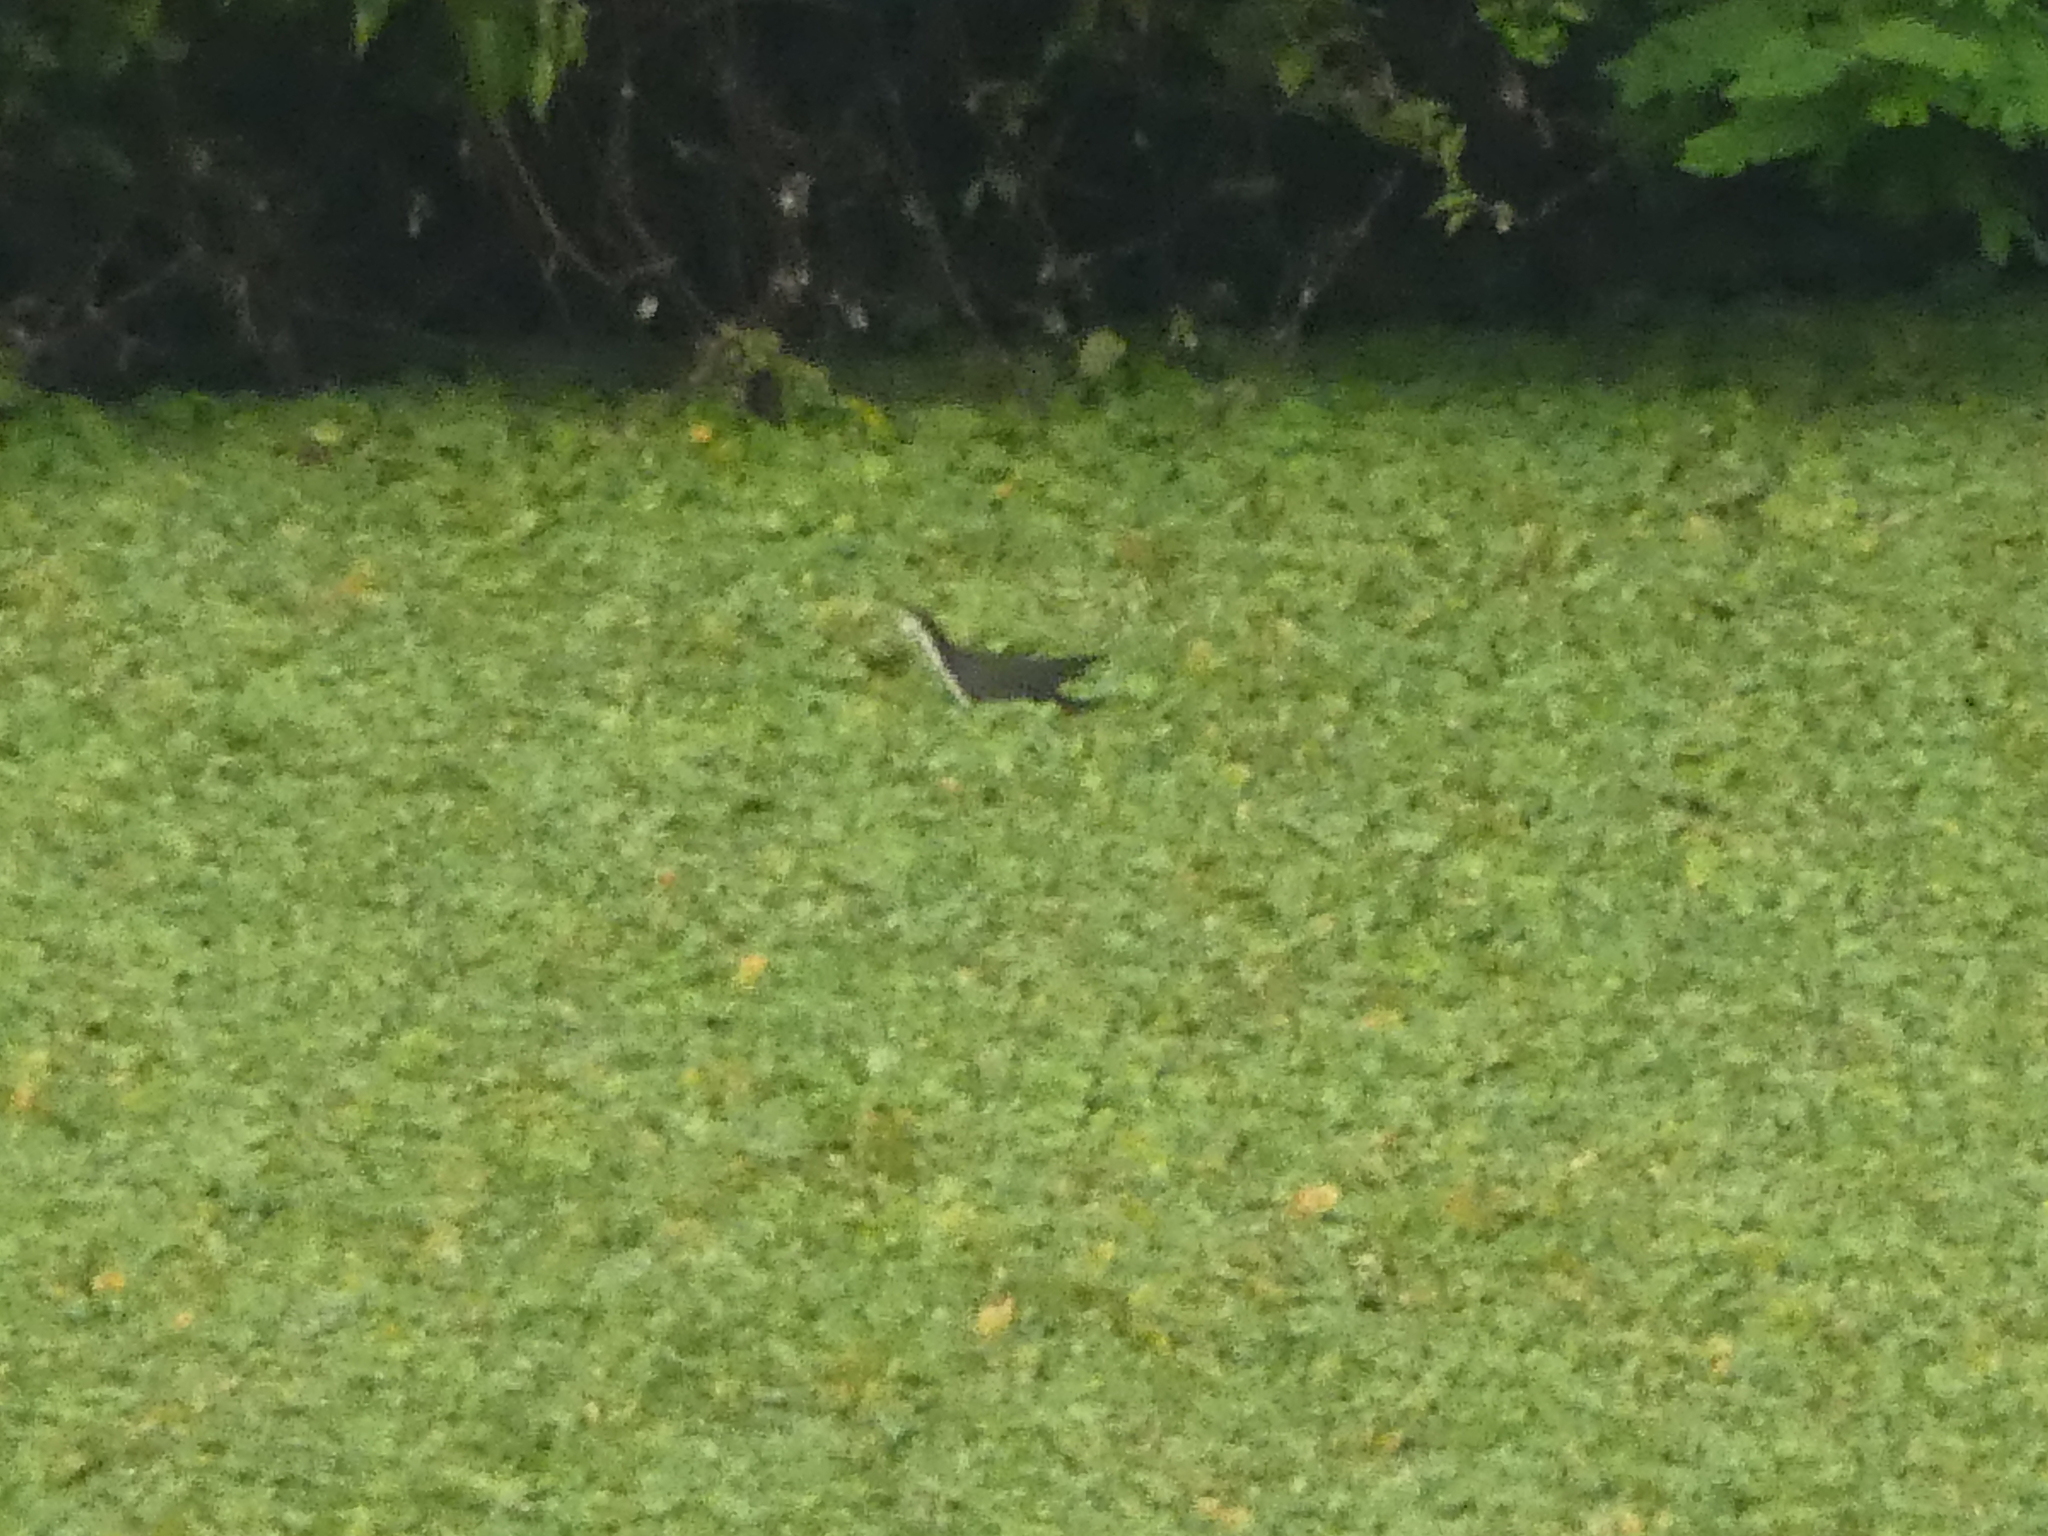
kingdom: Animalia
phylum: Chordata
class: Aves
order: Gruiformes
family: Rallidae
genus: Amaurornis
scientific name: Amaurornis phoenicurus
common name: White-breasted waterhen
